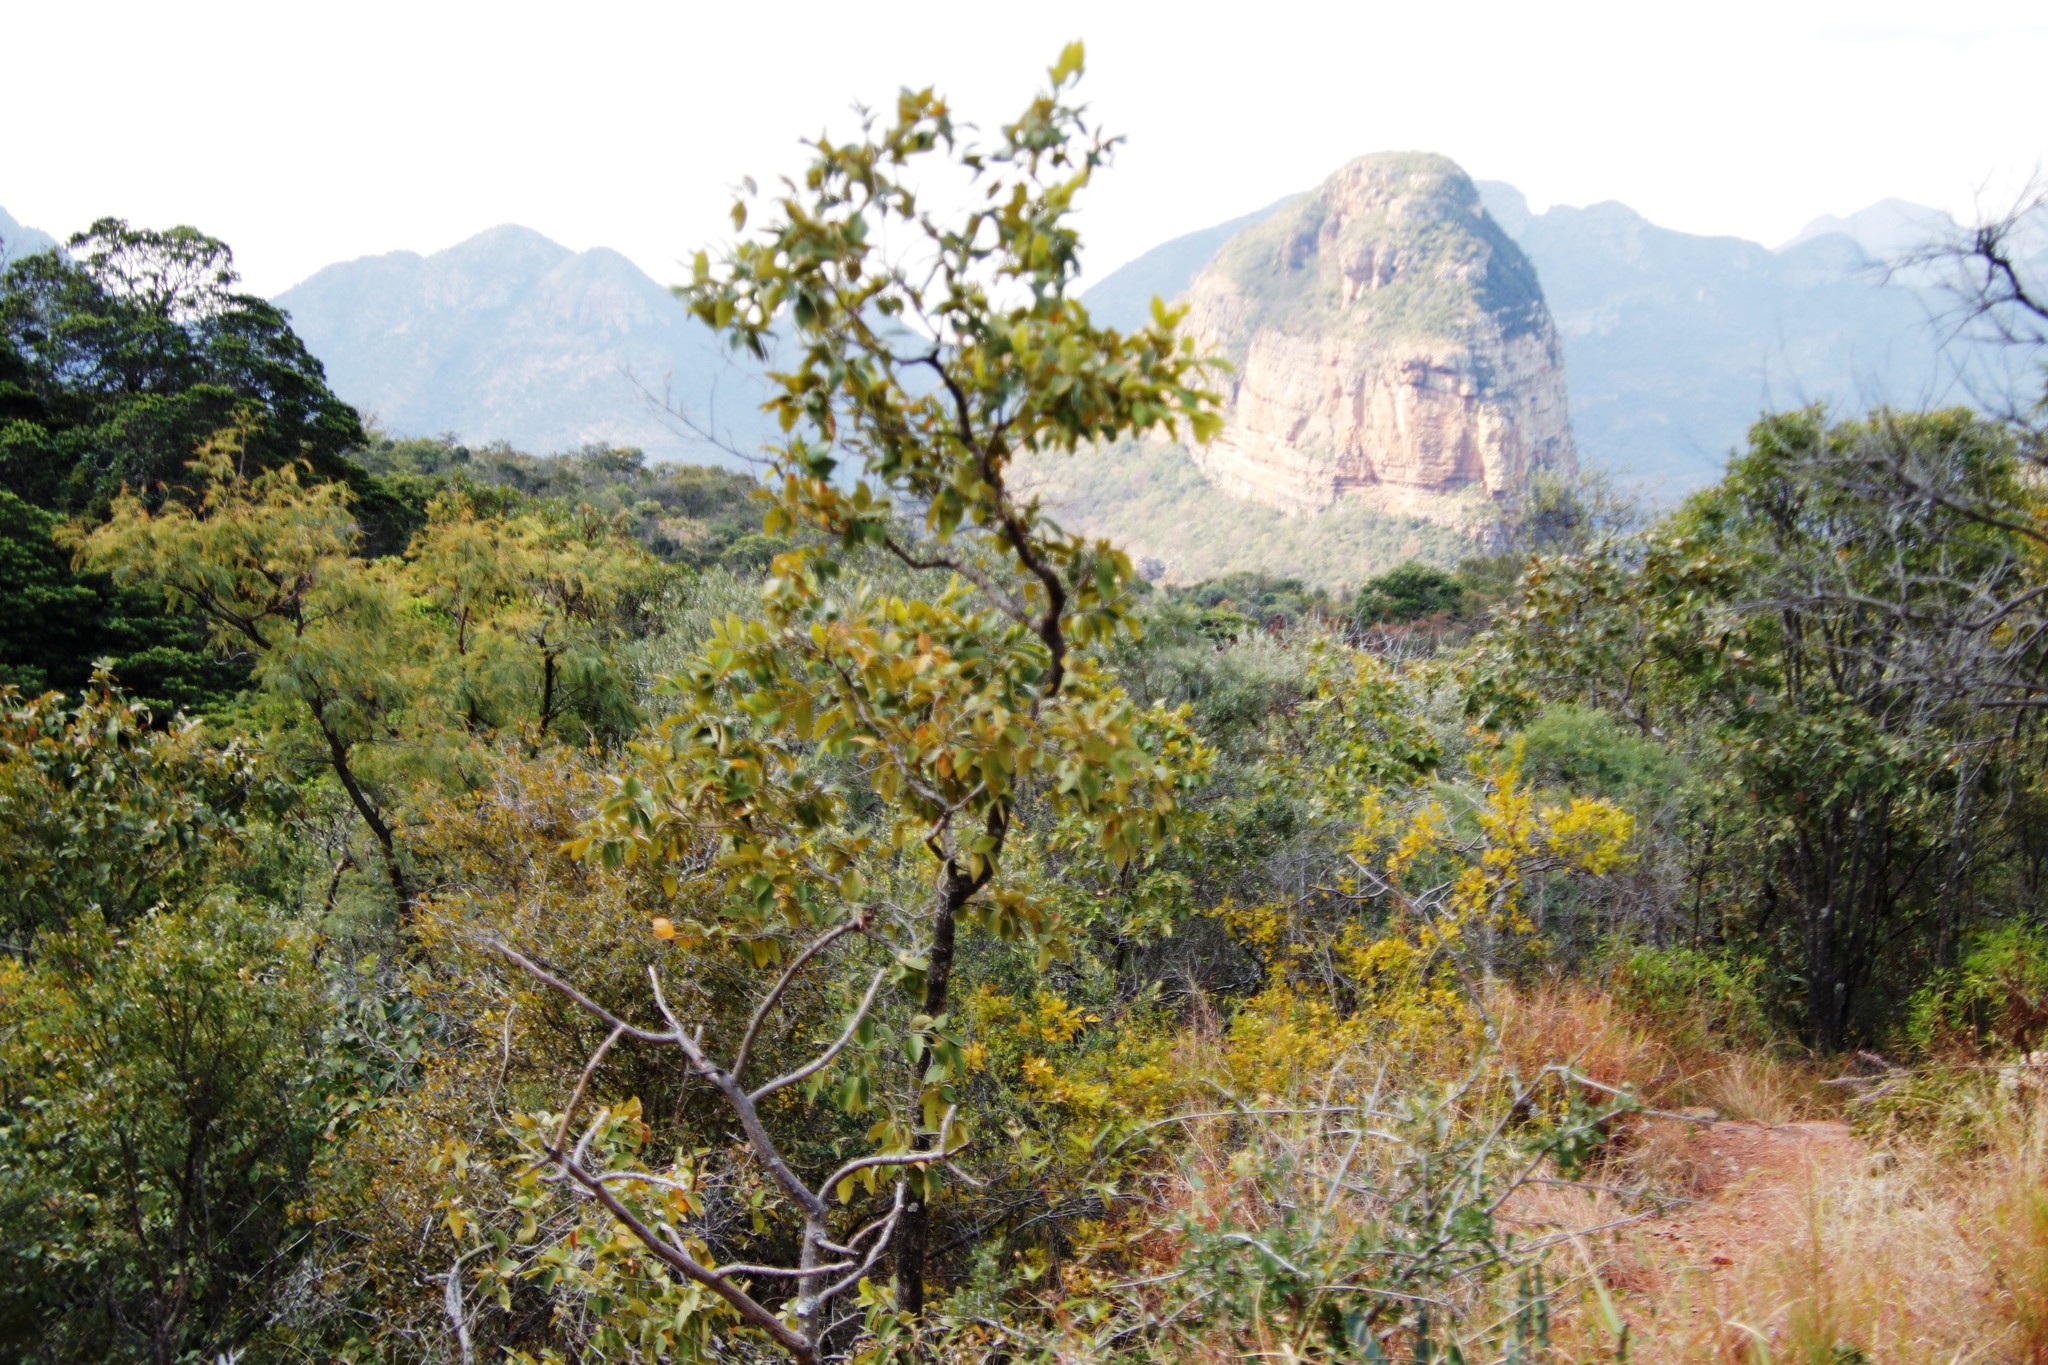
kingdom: Plantae
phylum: Tracheophyta
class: Magnoliopsida
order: Myrtales
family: Combretaceae
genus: Combretum
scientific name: Combretum molle
